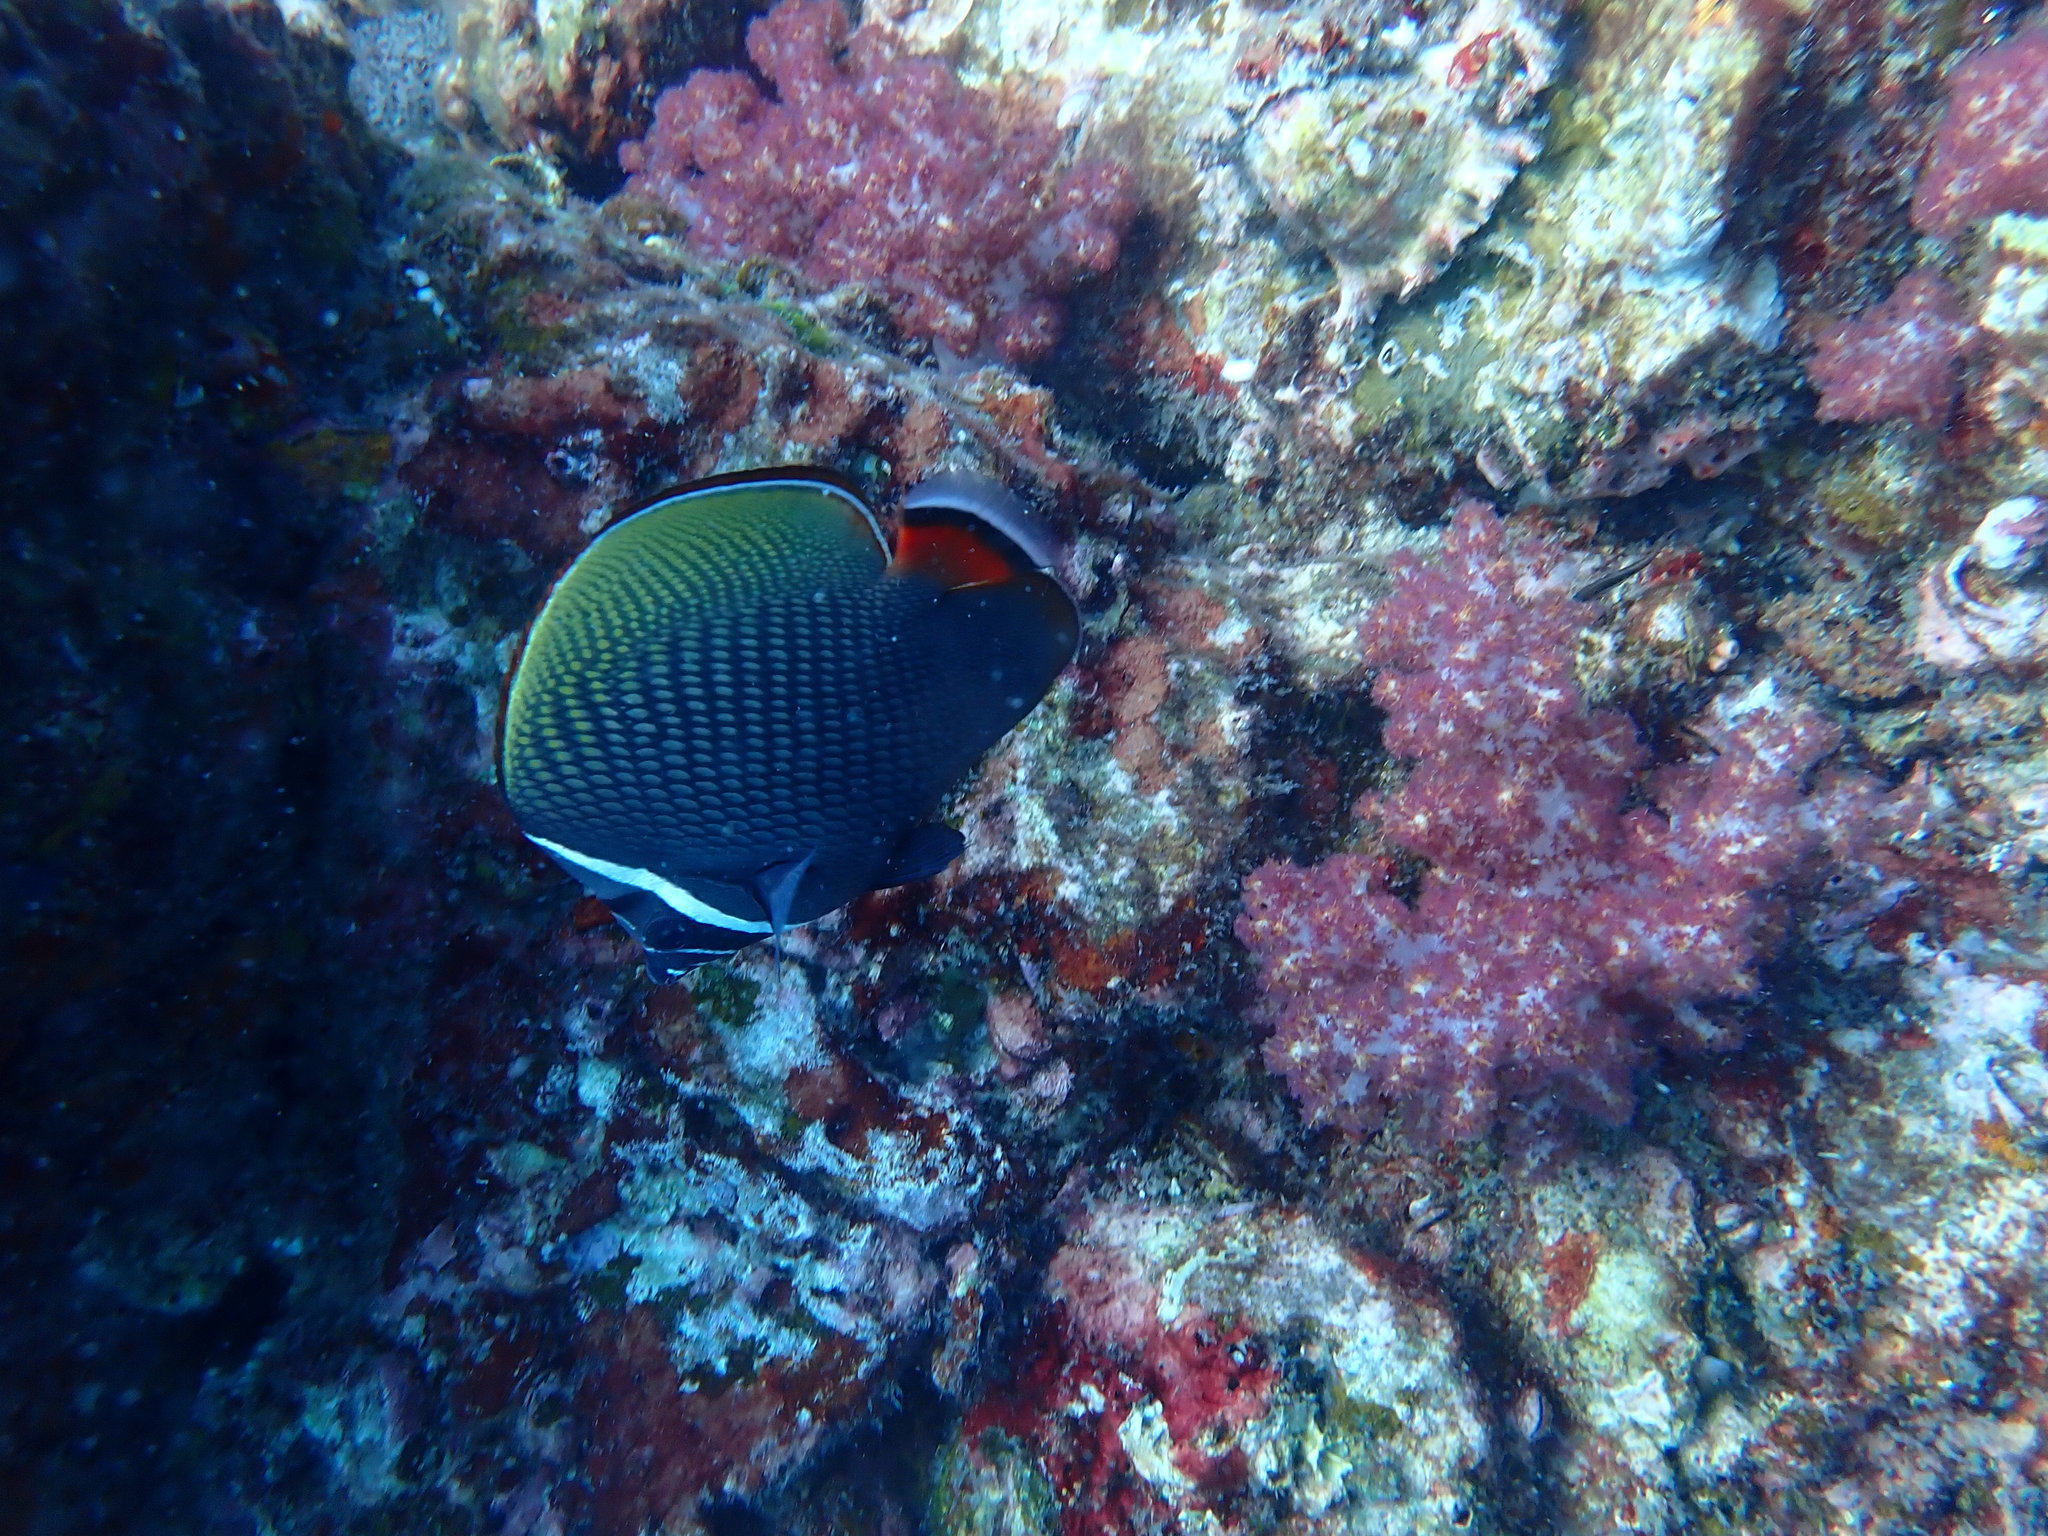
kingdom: Animalia
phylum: Chordata
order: Perciformes
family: Chaetodontidae
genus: Chaetodon
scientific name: Chaetodon collare
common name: Redtail butterflyfish
